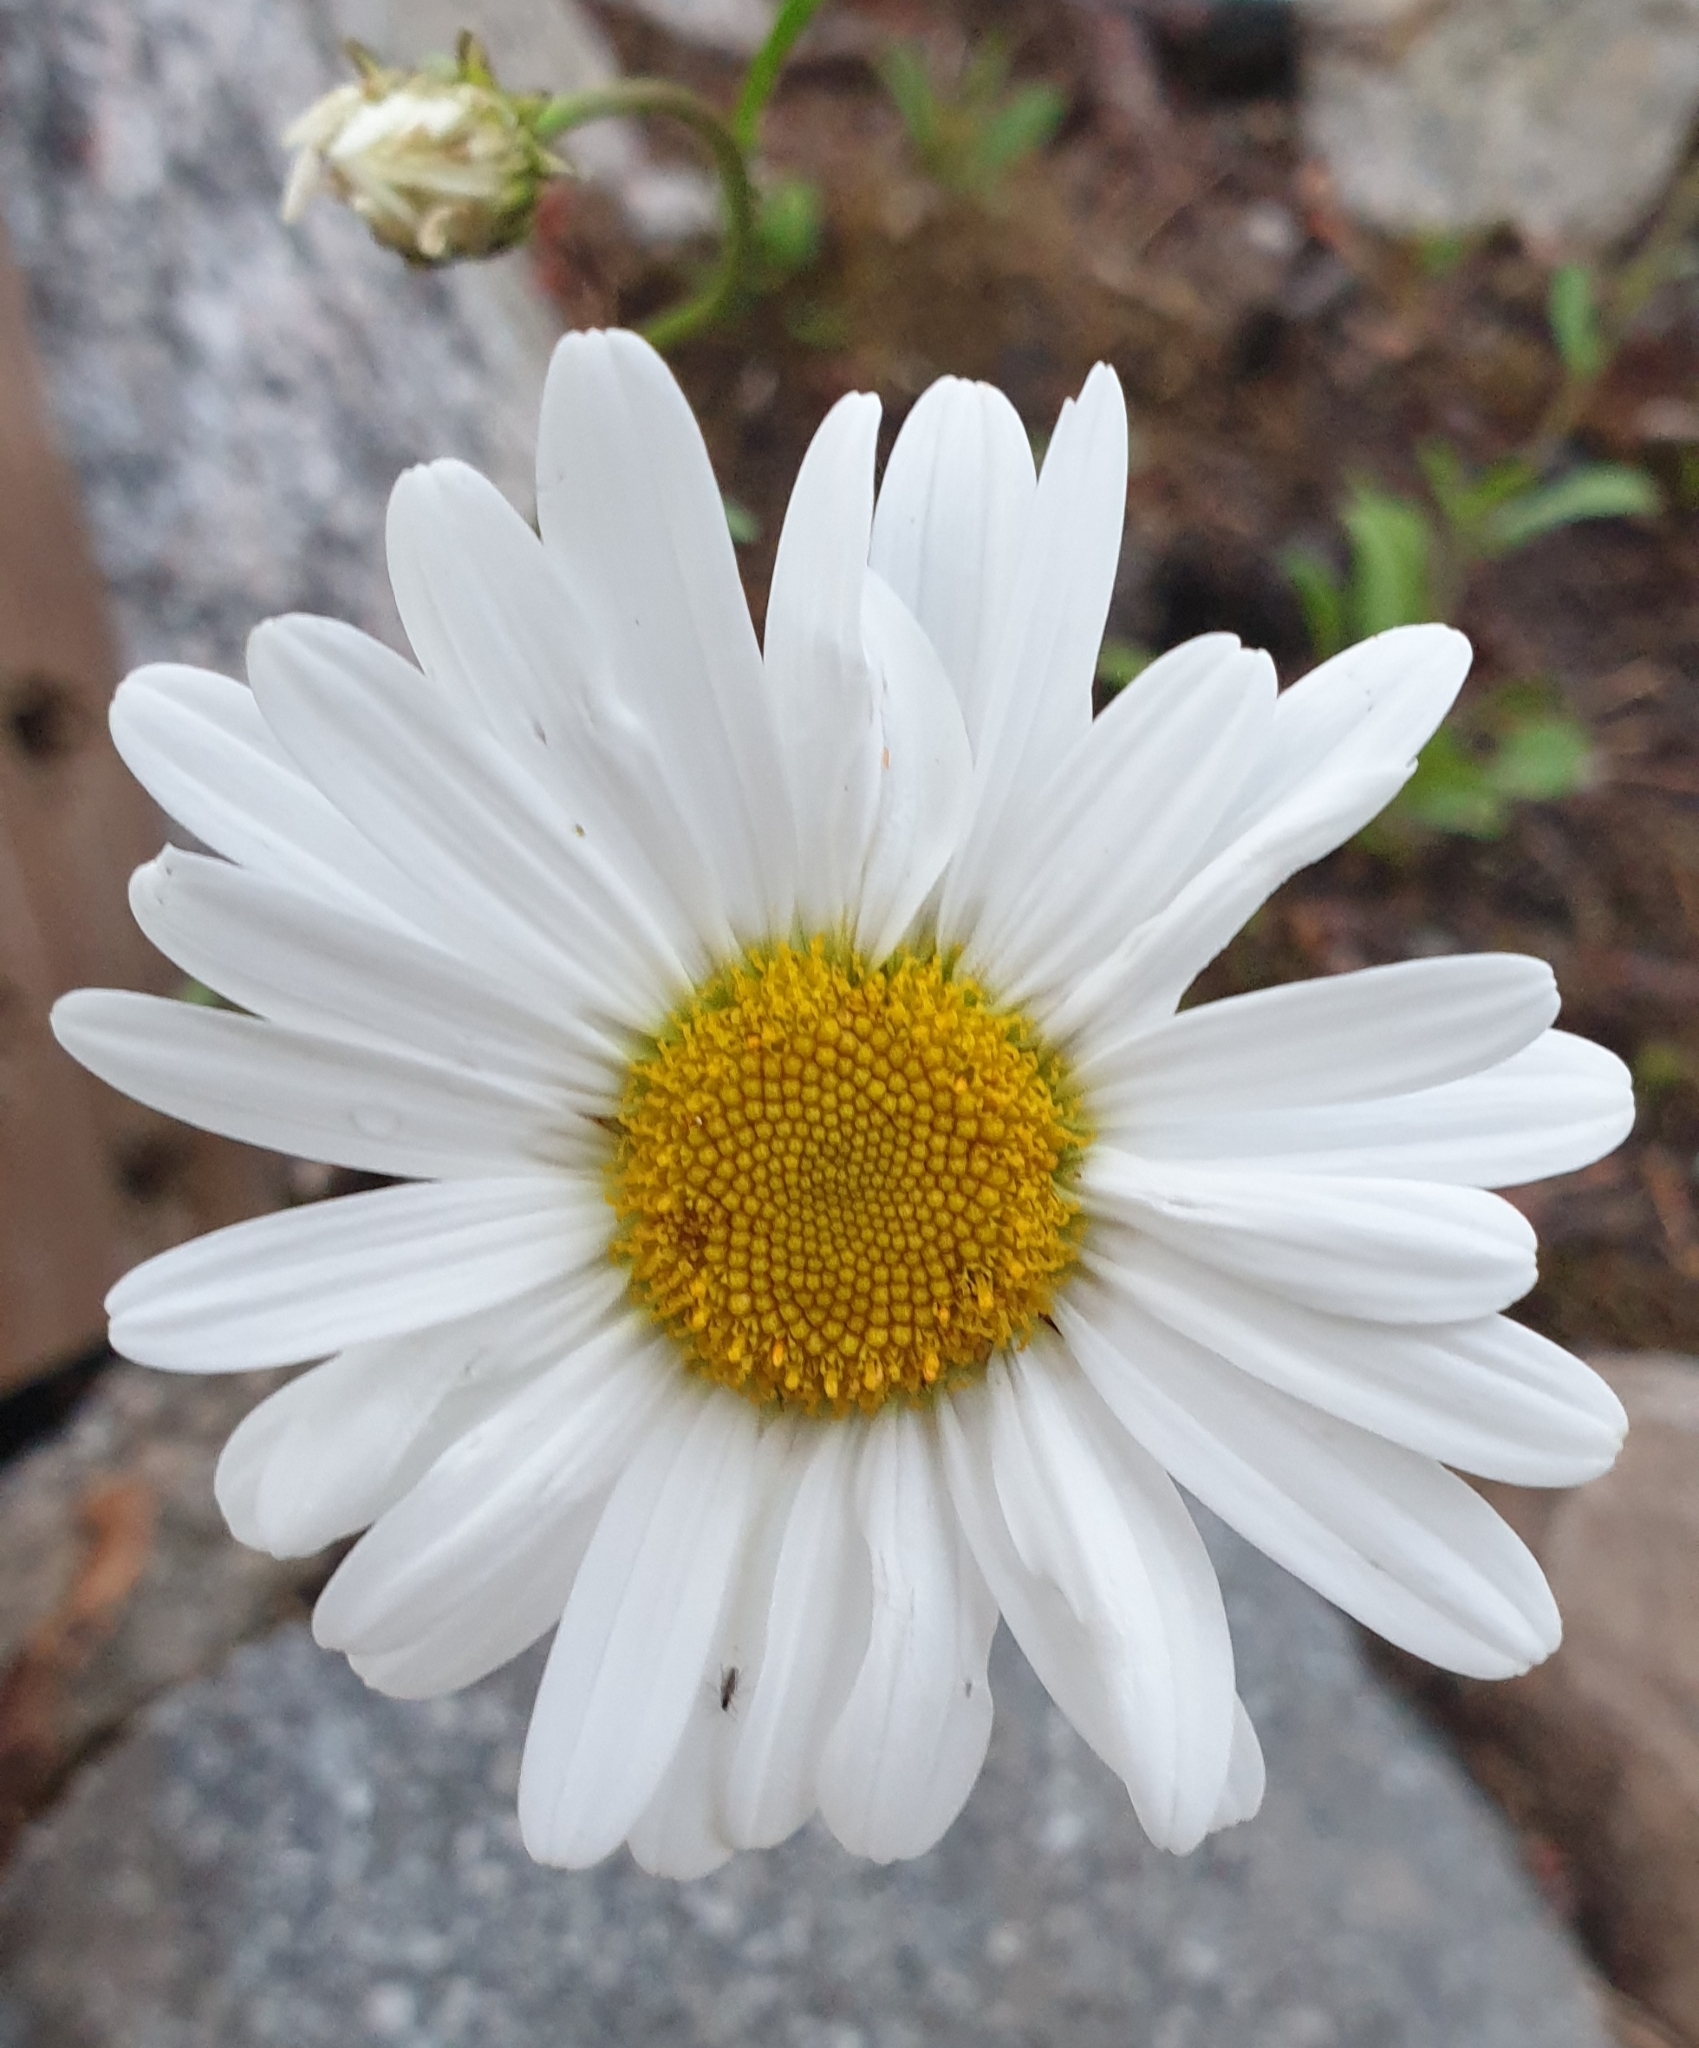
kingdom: Plantae
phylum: Tracheophyta
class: Magnoliopsida
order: Asterales
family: Asteraceae
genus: Leucanthemum
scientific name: Leucanthemum vulgare
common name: Oxeye daisy
